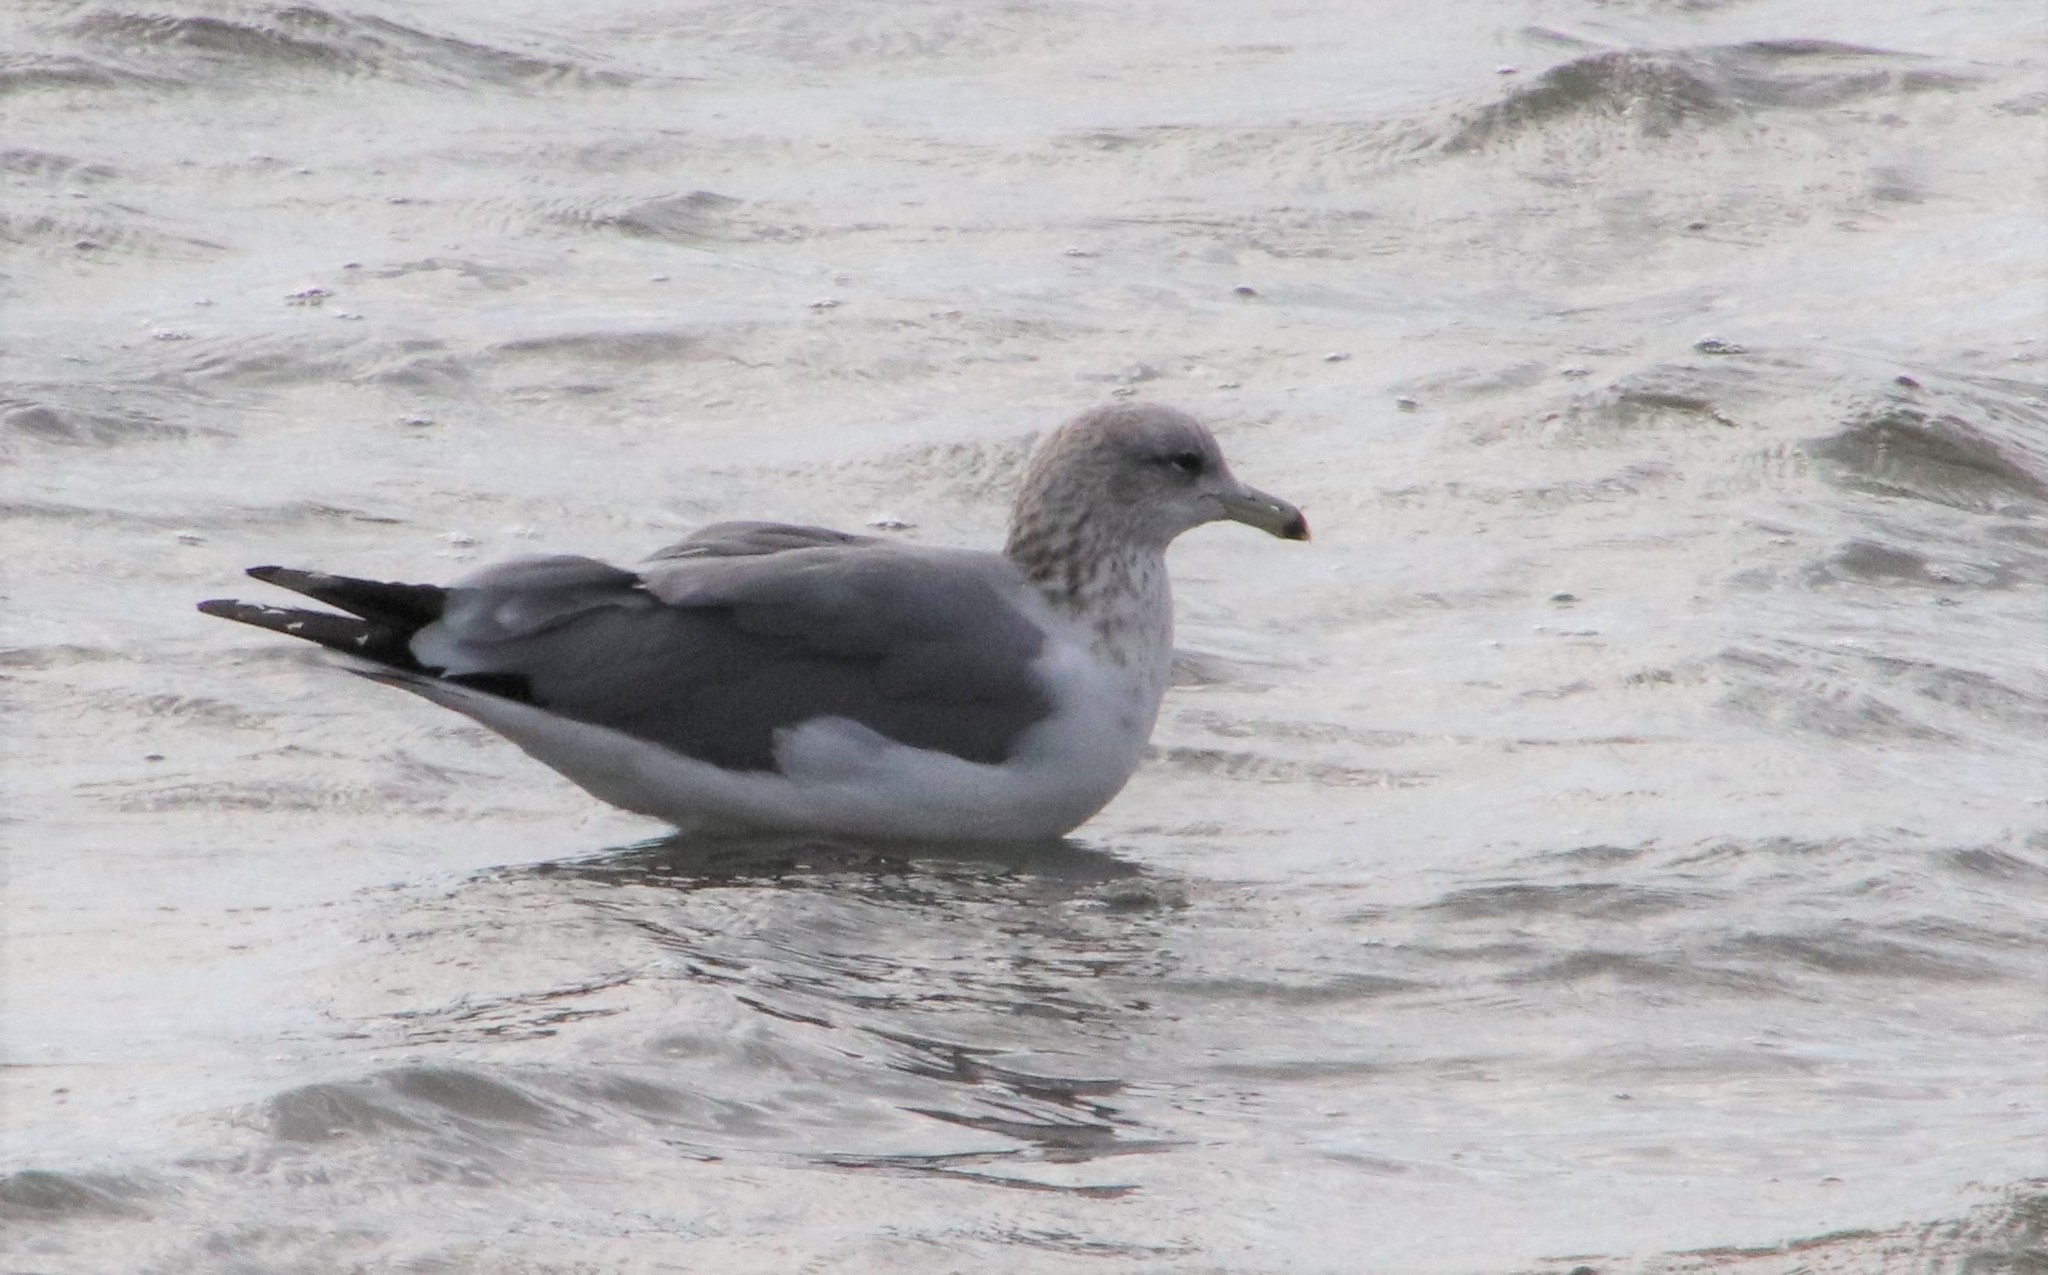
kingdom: Animalia
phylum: Chordata
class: Aves
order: Charadriiformes
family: Laridae
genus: Larus
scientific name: Larus californicus
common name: California gull
